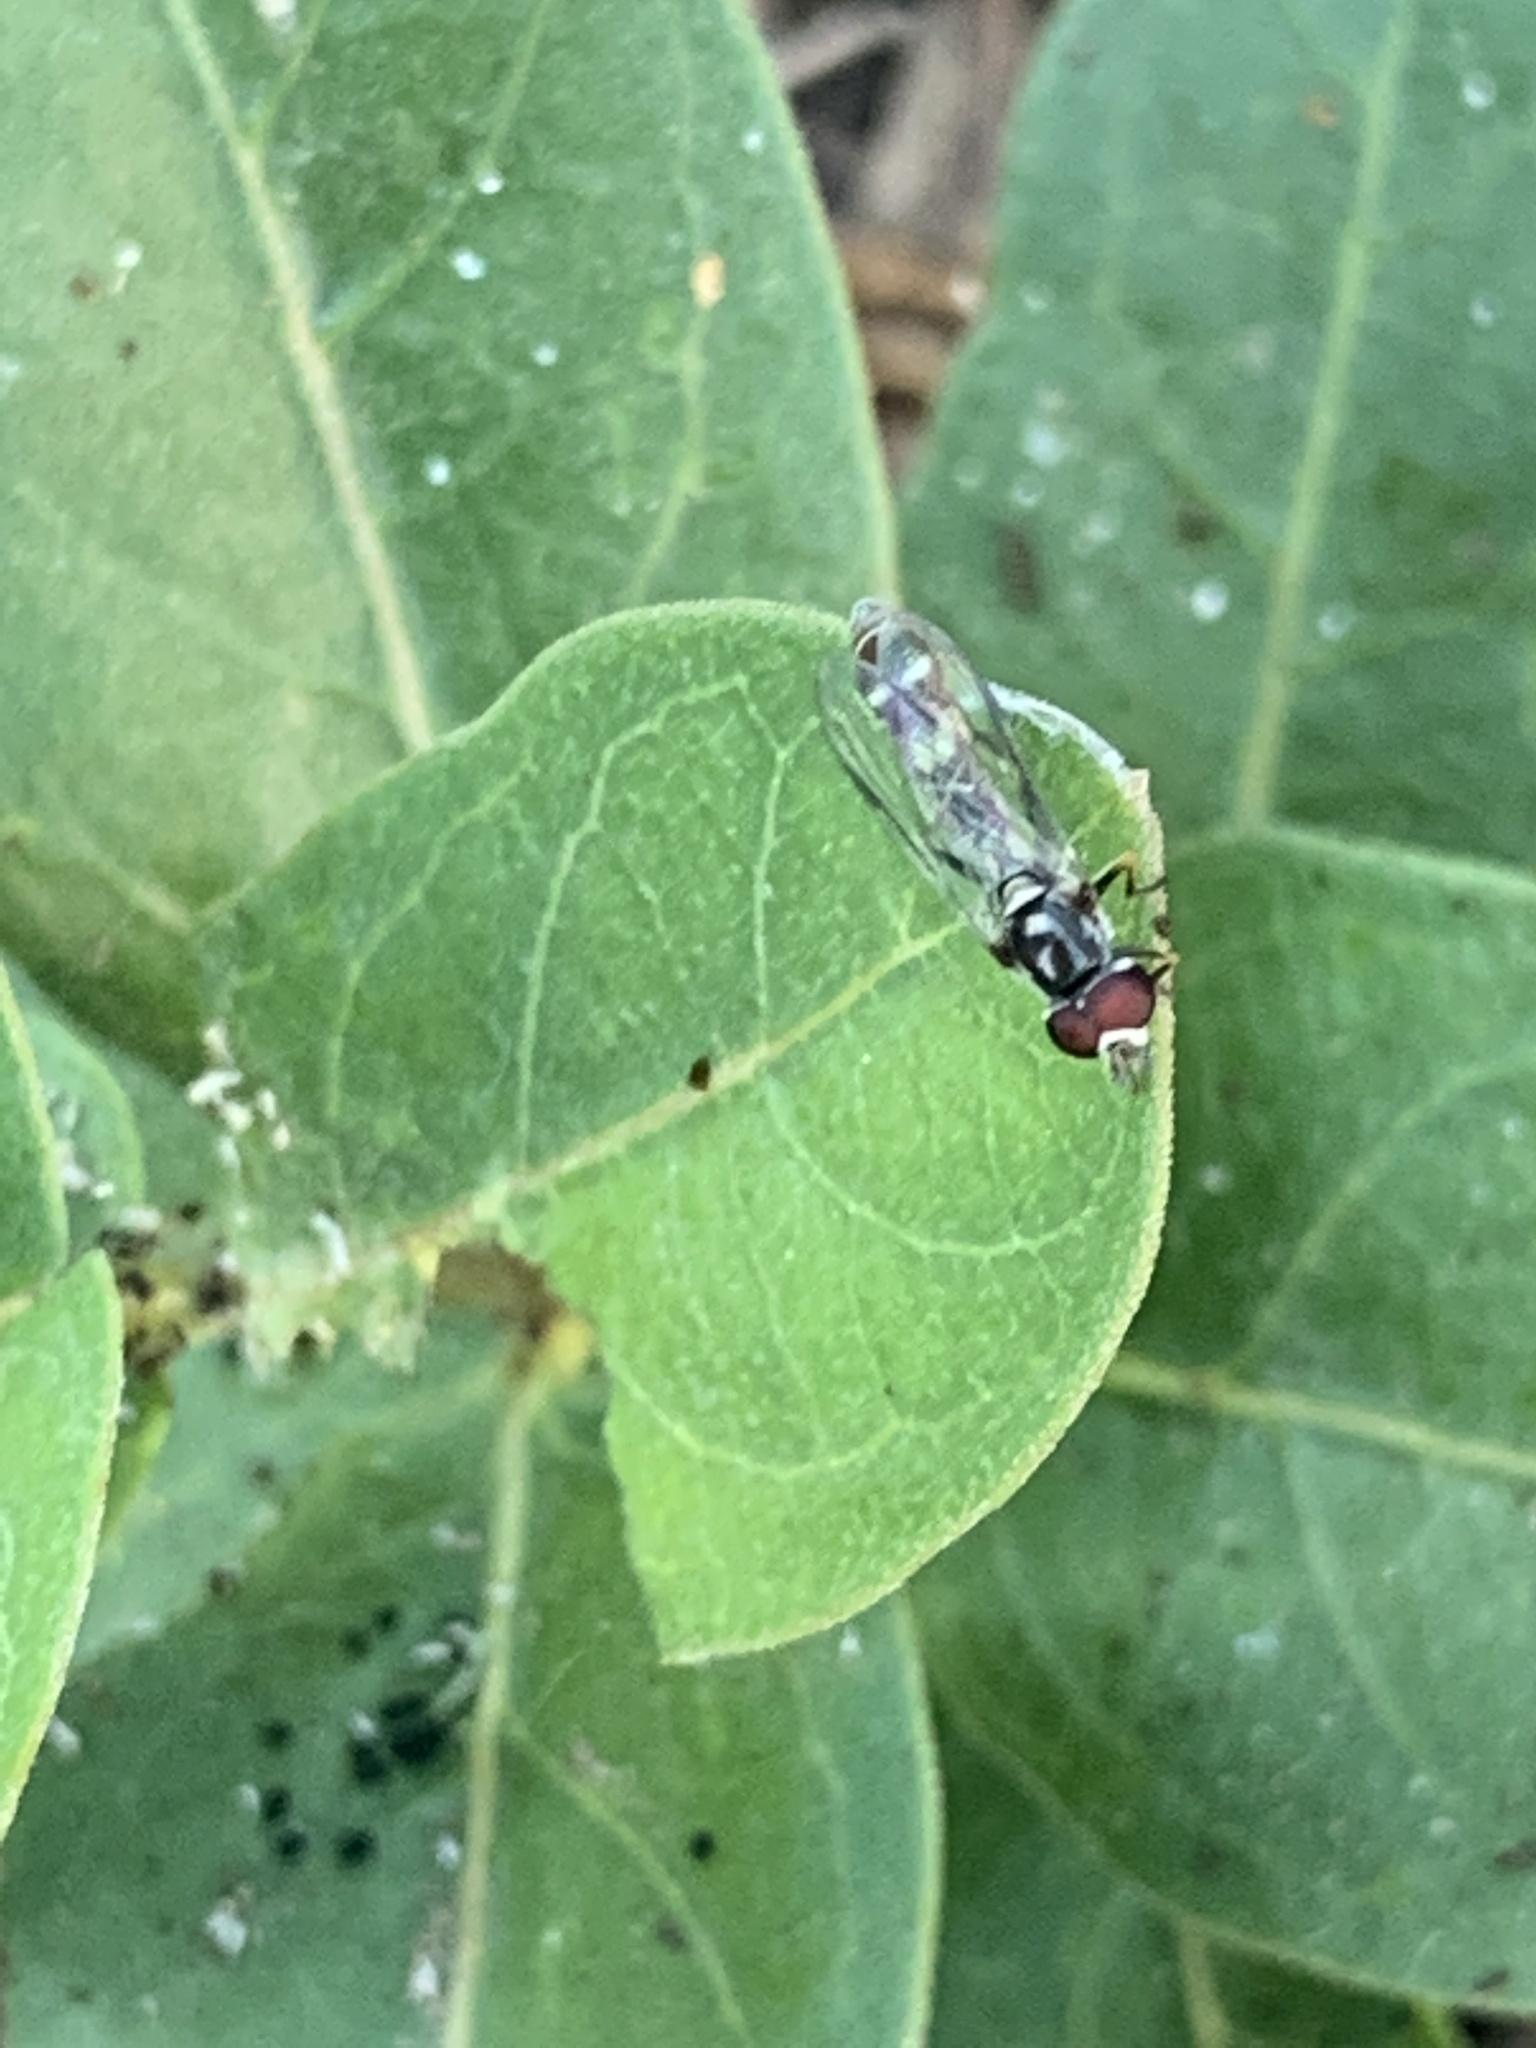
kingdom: Animalia
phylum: Arthropoda
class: Insecta
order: Diptera
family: Syrphidae
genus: Dioprosopa
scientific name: Dioprosopa clavatus
